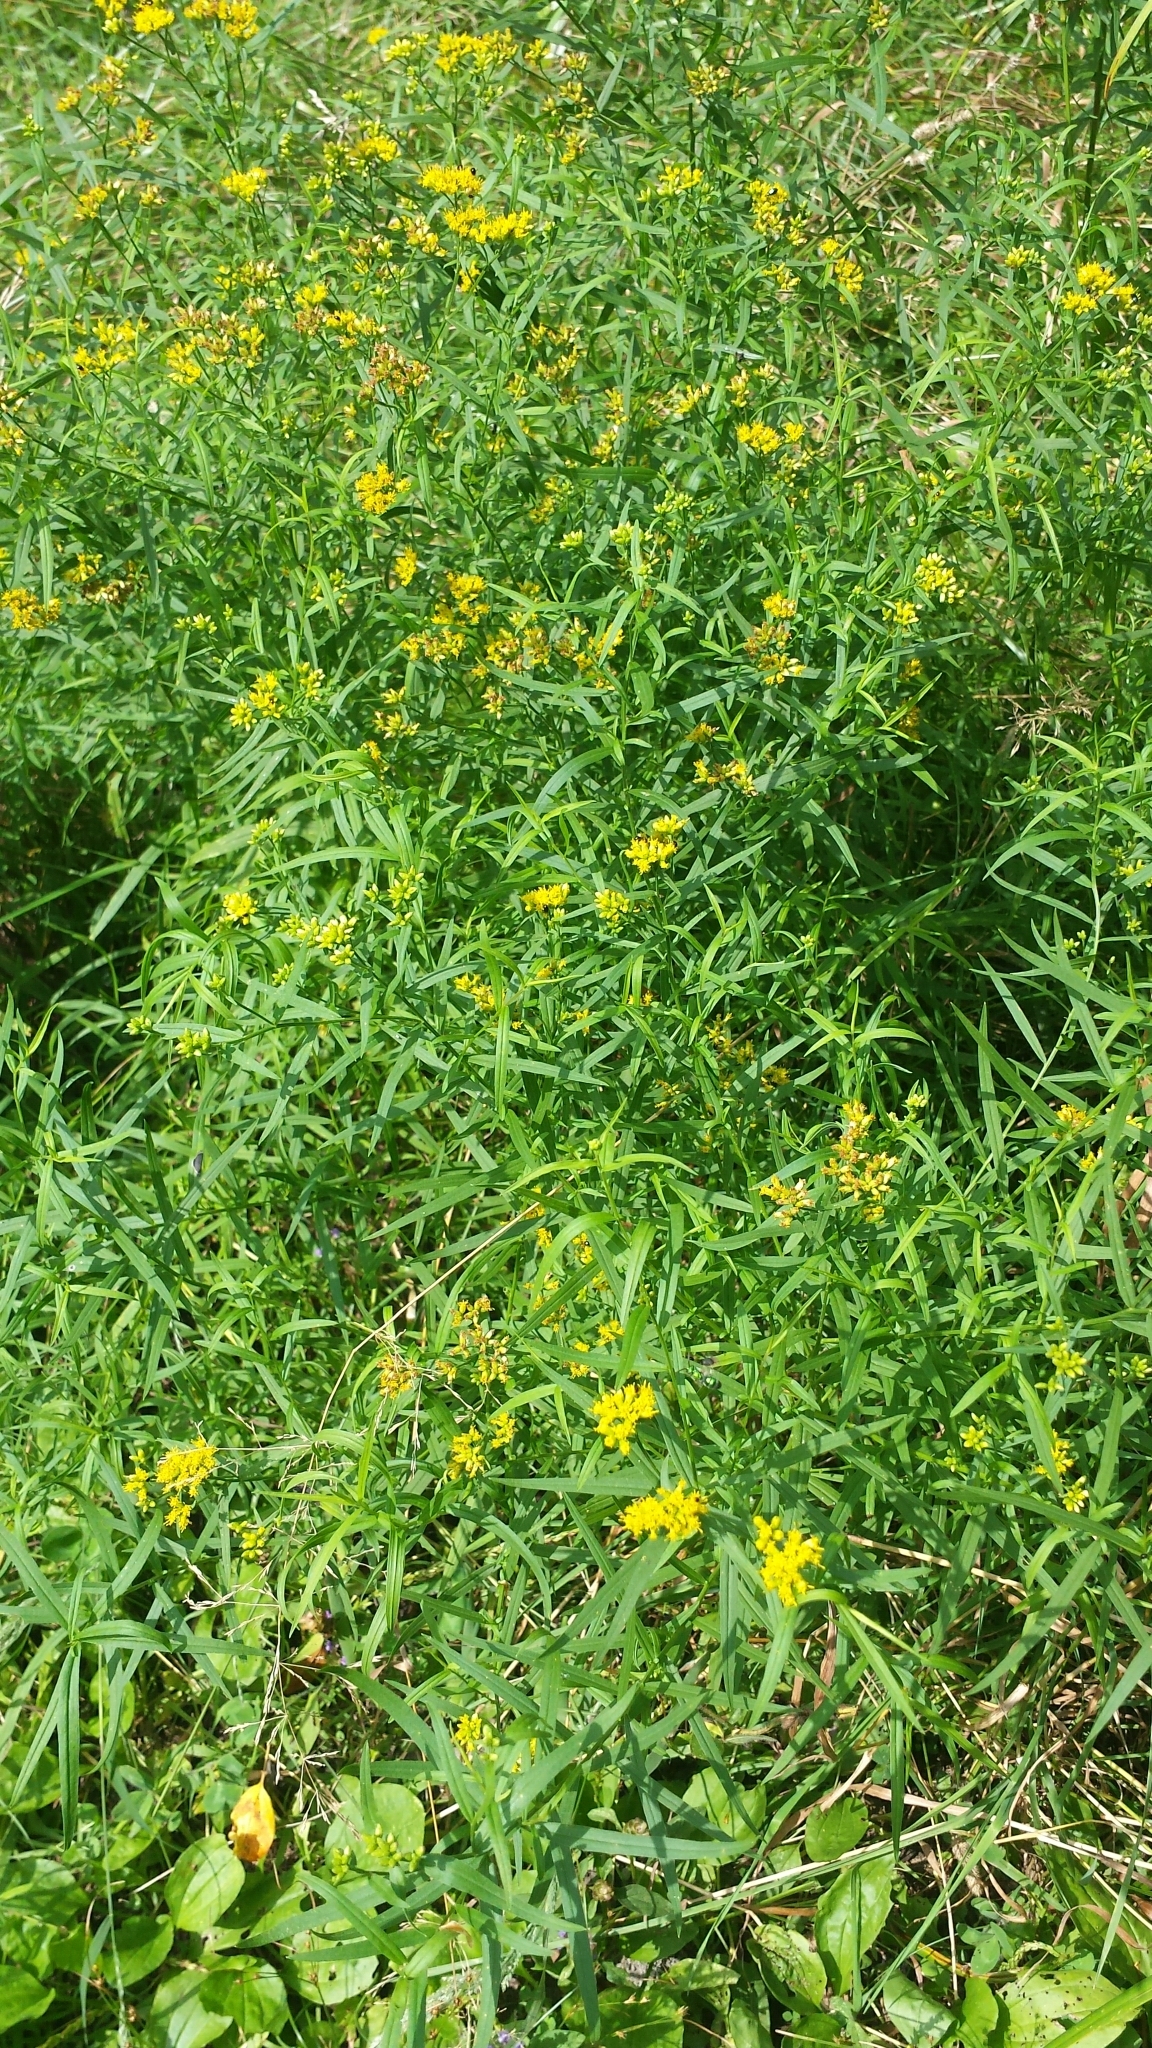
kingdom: Plantae
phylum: Tracheophyta
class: Magnoliopsida
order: Asterales
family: Asteraceae
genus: Euthamia
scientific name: Euthamia graminifolia
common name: Common goldentop
